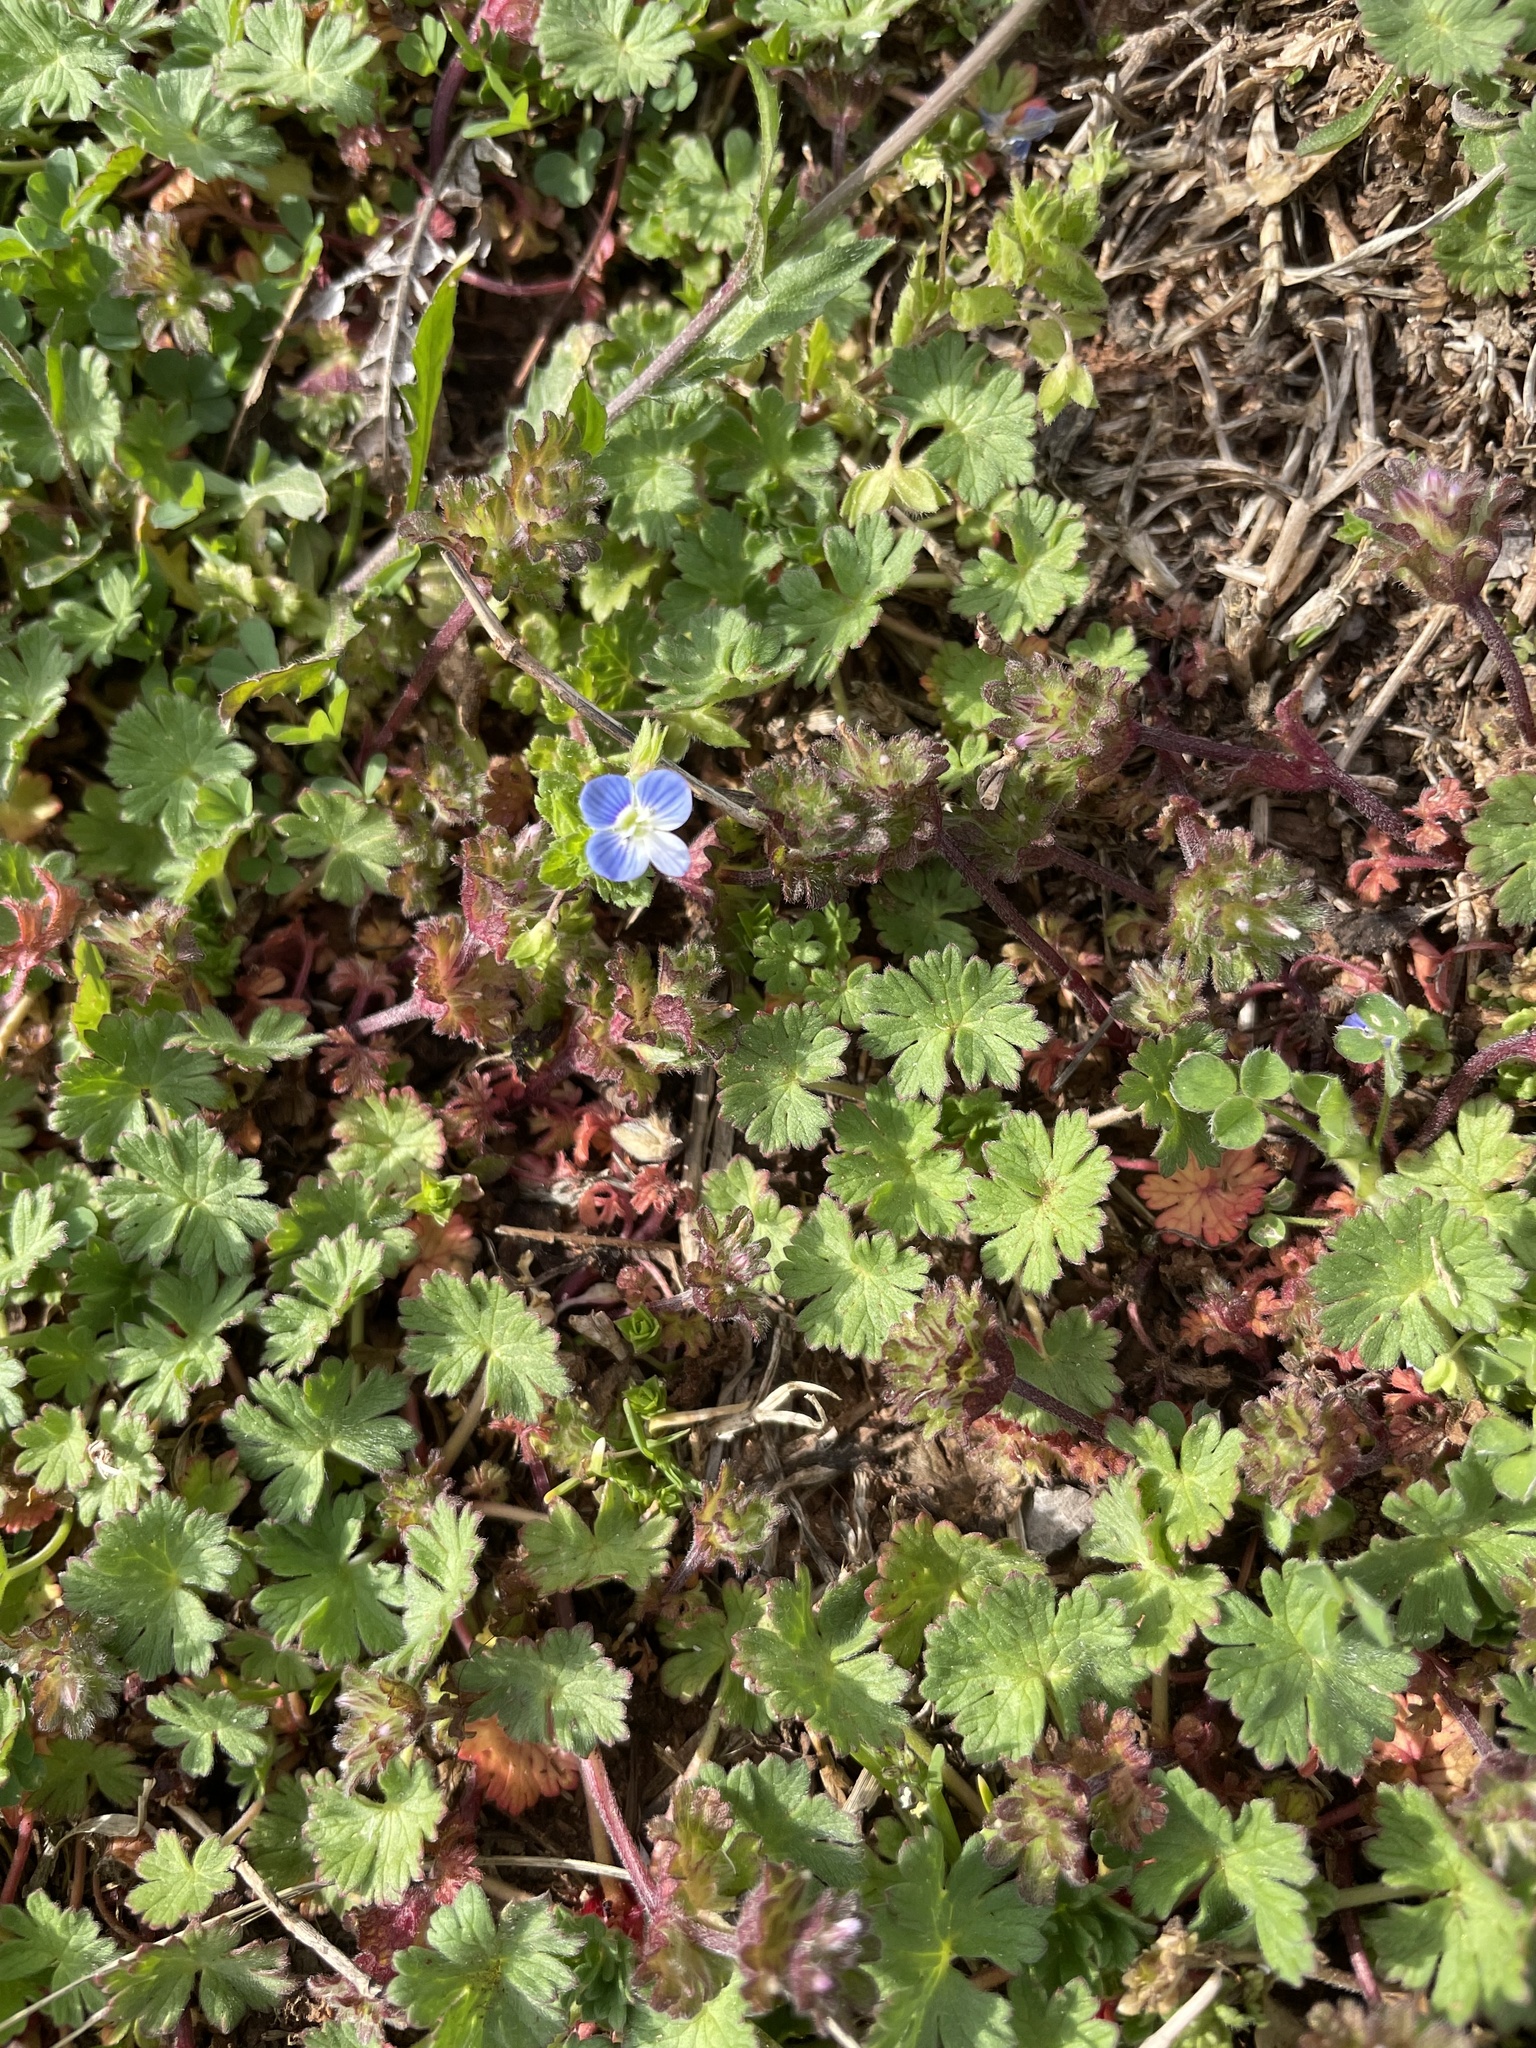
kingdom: Plantae
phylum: Tracheophyta
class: Magnoliopsida
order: Lamiales
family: Plantaginaceae
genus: Veronica
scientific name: Veronica persica
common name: Common field-speedwell
